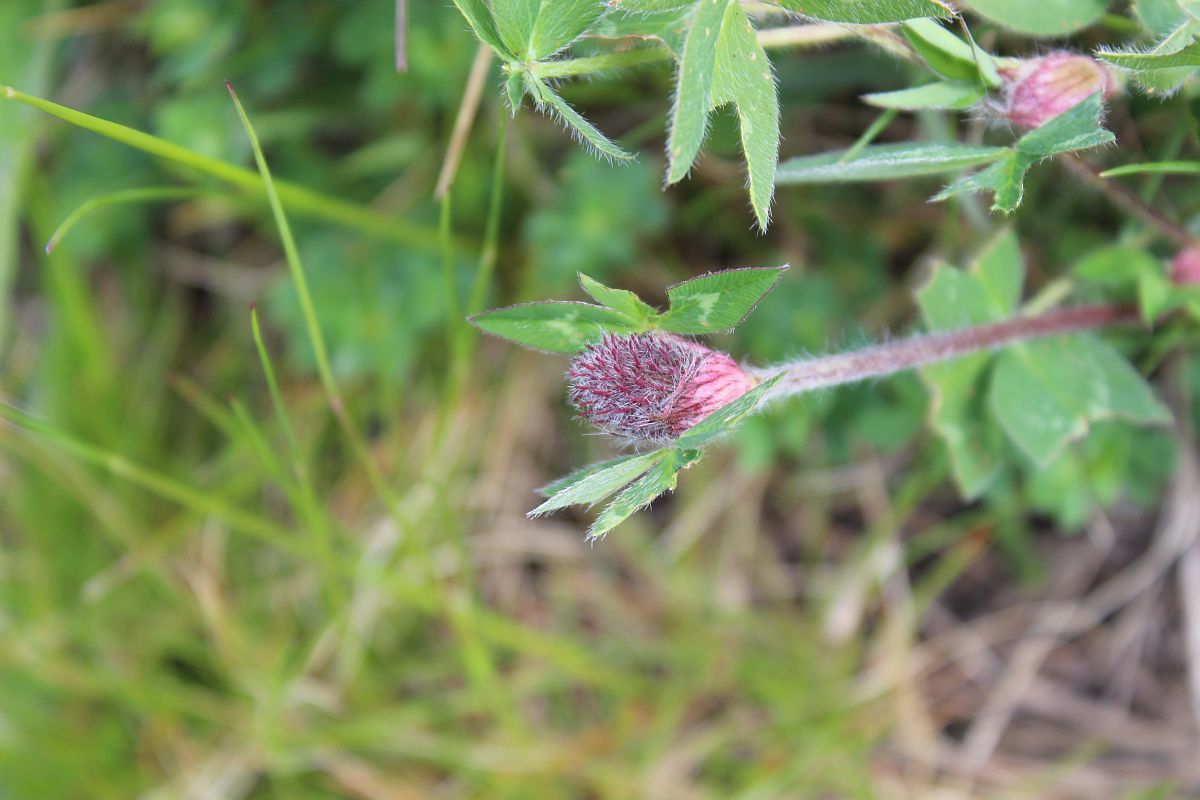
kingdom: Plantae
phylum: Tracheophyta
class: Magnoliopsida
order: Fabales
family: Fabaceae
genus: Trifolium
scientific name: Trifolium pratense
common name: Red clover
